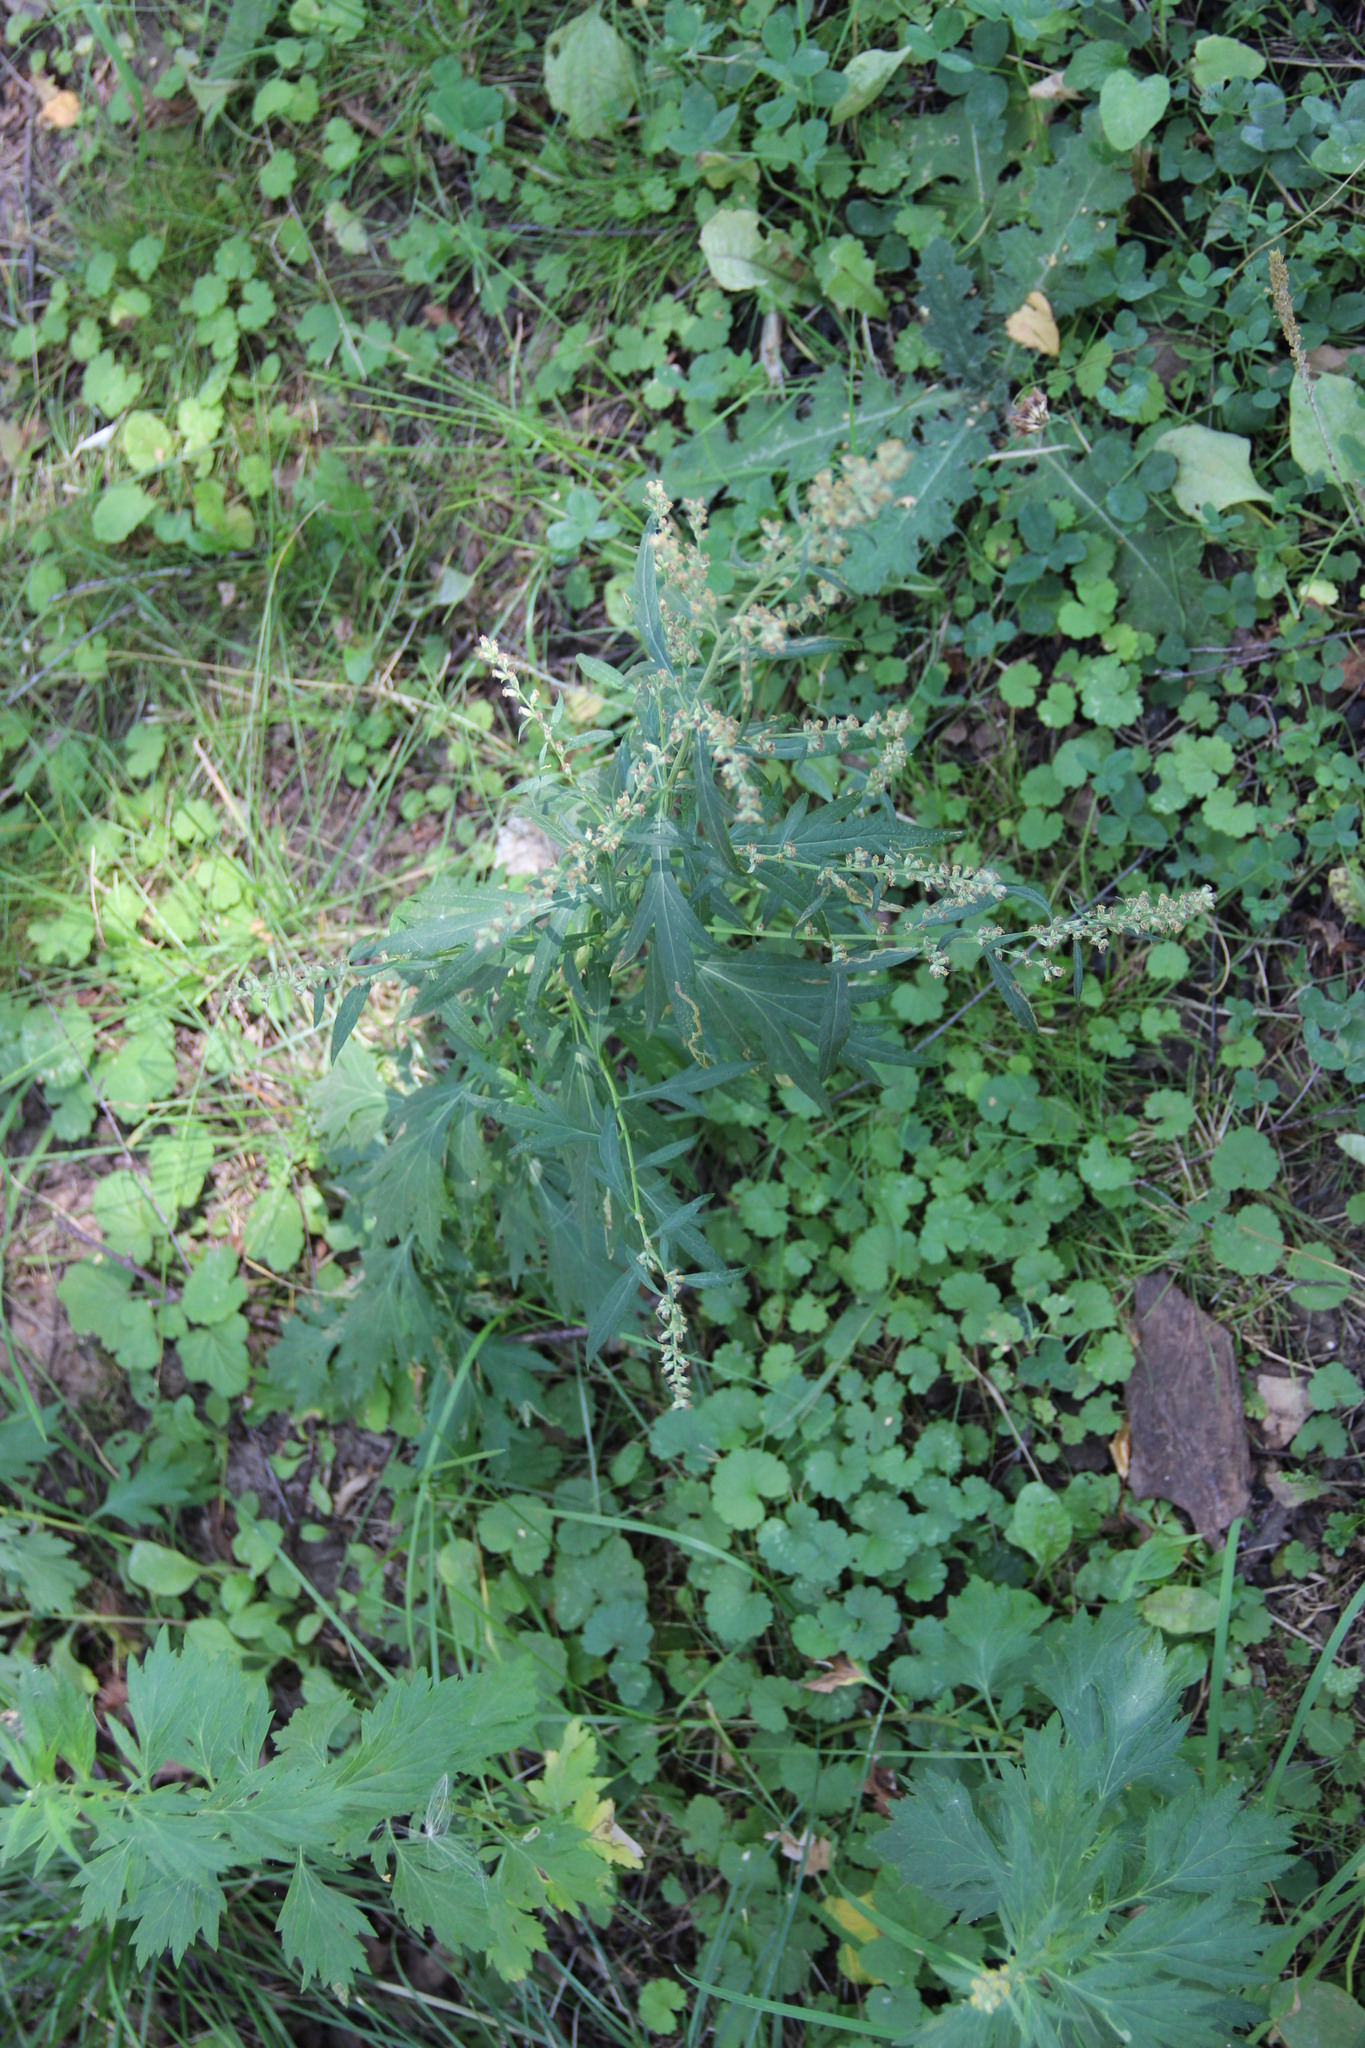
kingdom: Plantae
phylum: Tracheophyta
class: Magnoliopsida
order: Asterales
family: Asteraceae
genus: Artemisia
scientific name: Artemisia vulgaris
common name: Mugwort
